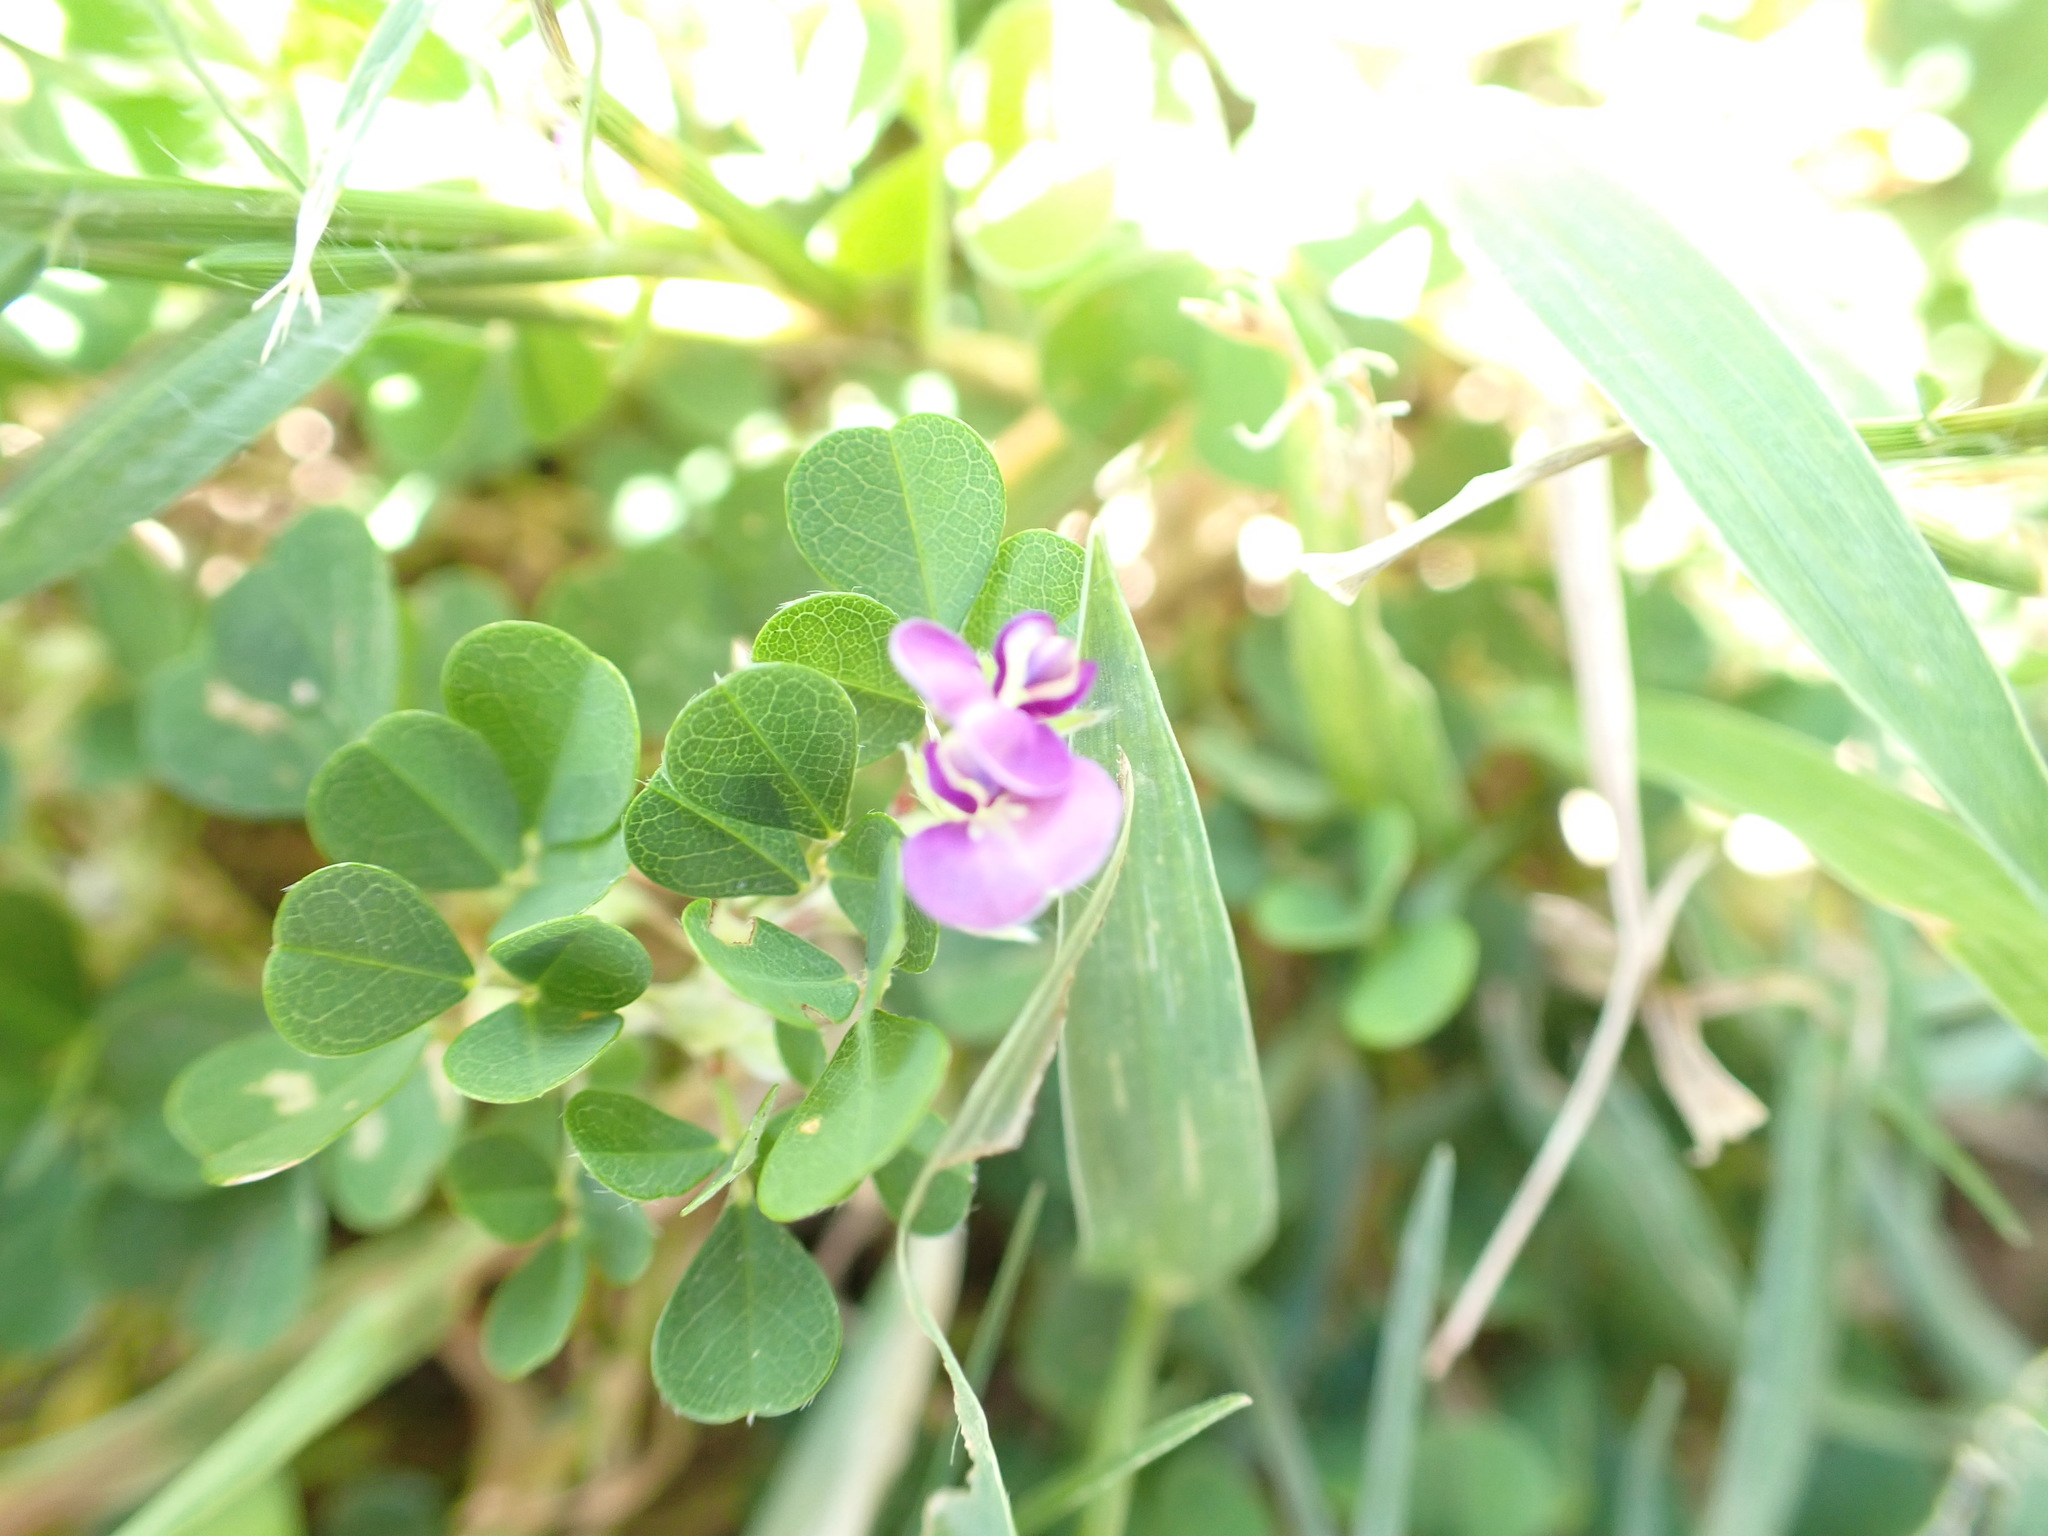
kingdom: Plantae
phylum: Tracheophyta
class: Magnoliopsida
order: Fabales
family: Fabaceae
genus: Grona
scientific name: Grona triflora
